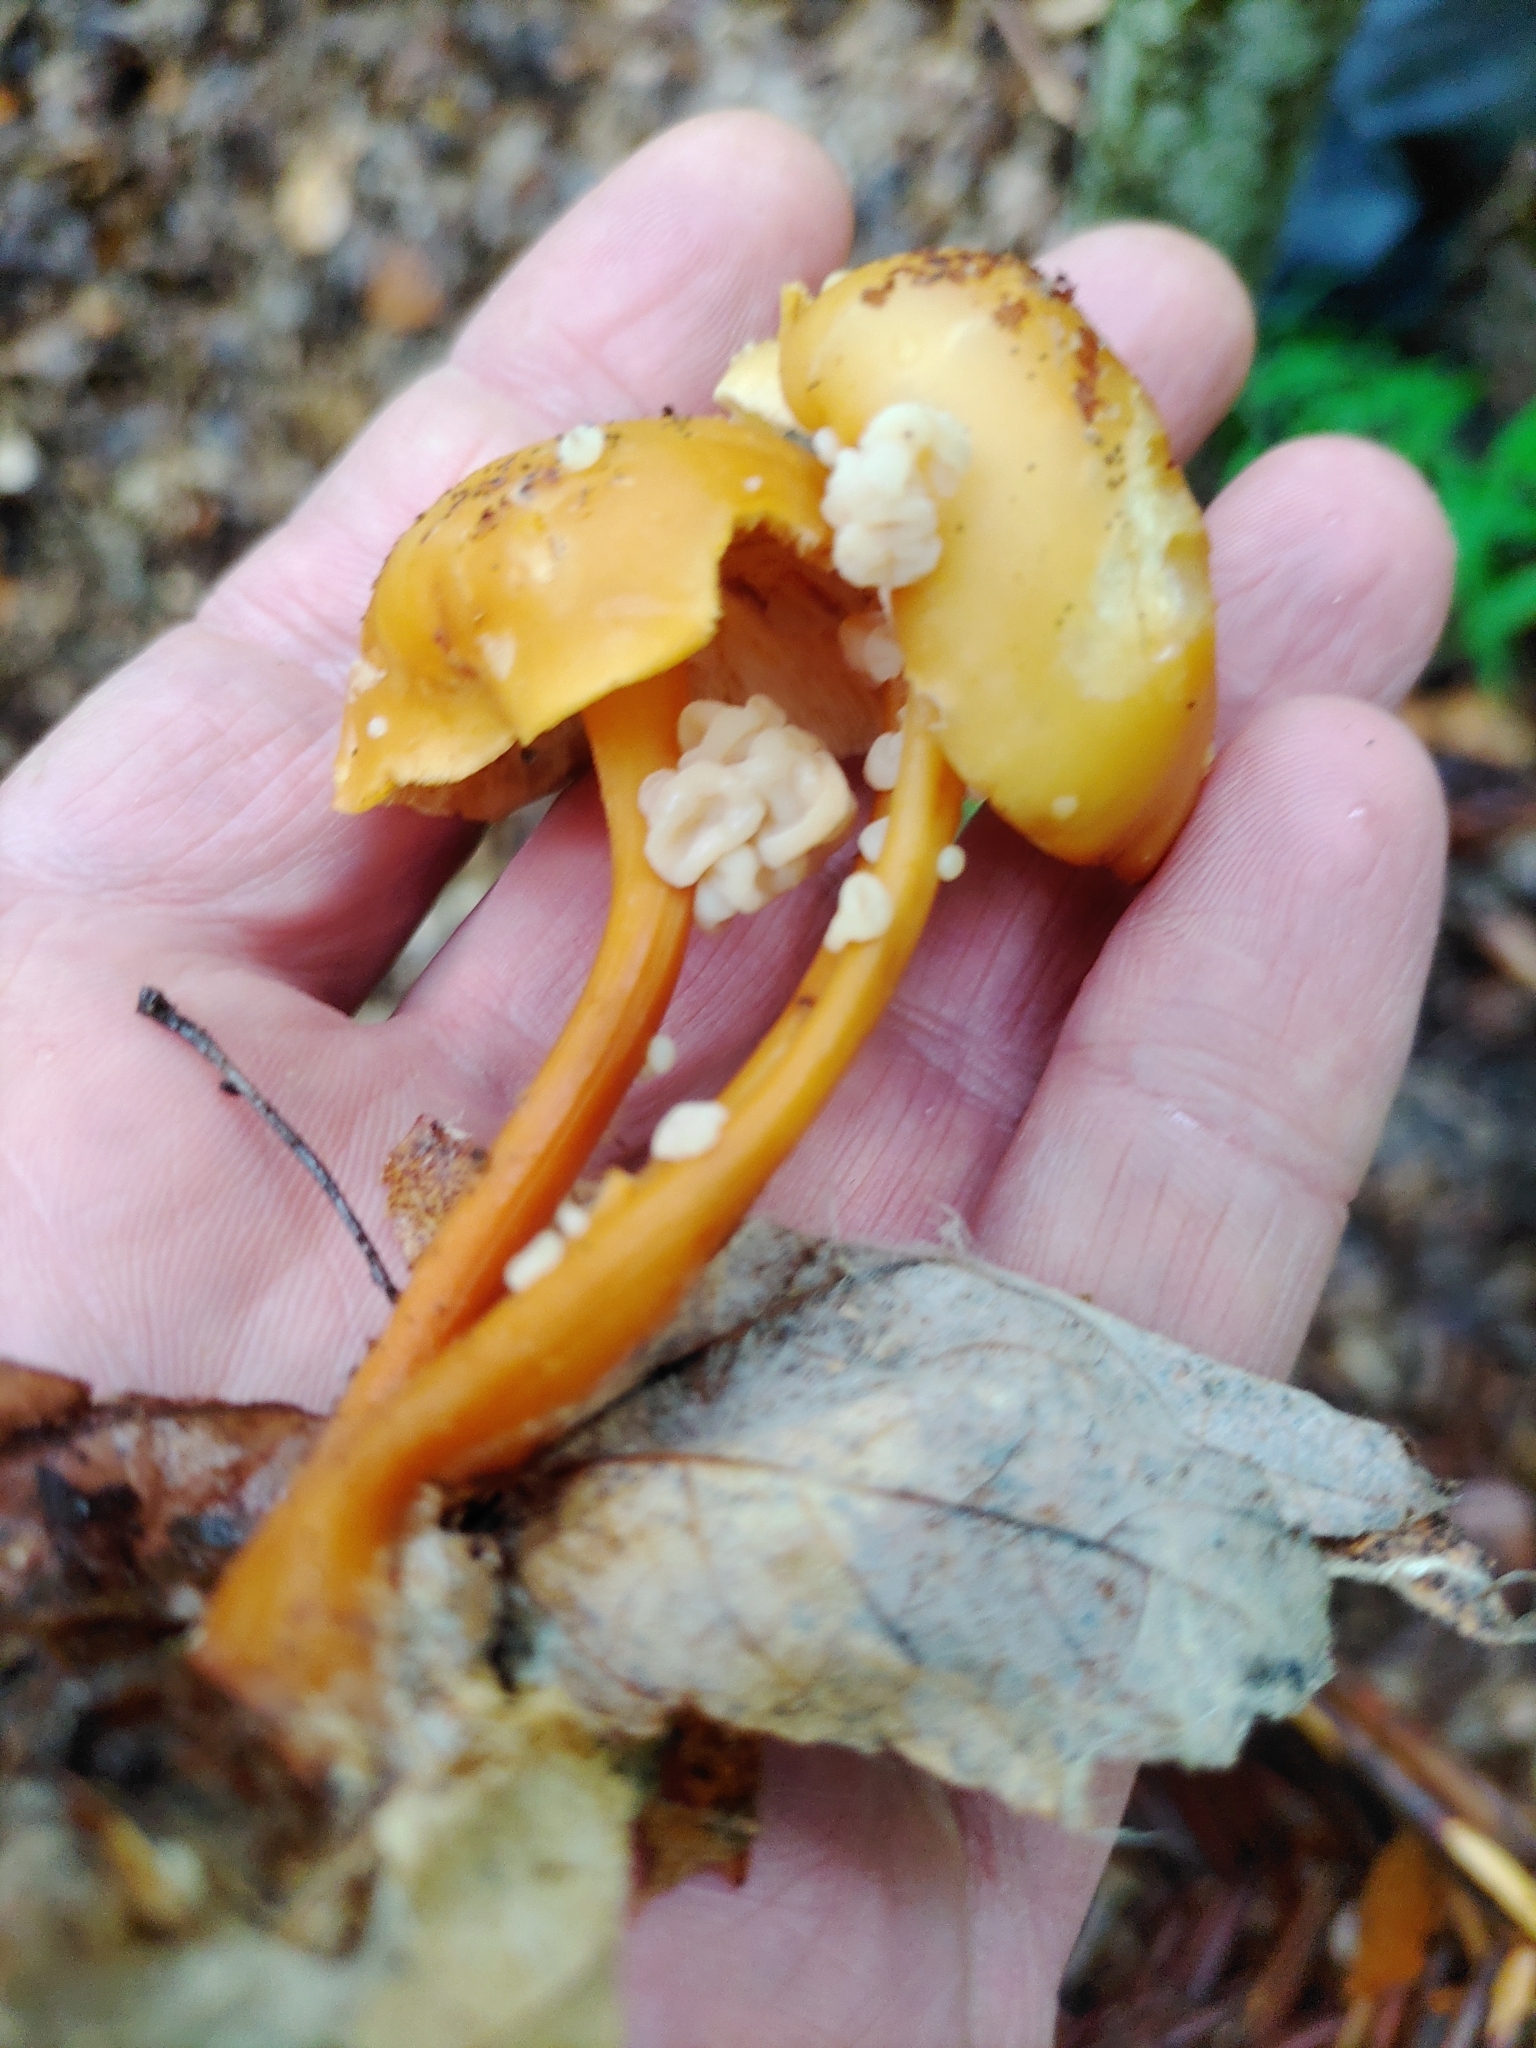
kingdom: Fungi
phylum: Basidiomycota
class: Tremellomycetes
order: Filobasidiales
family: Filobasidiaceae
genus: Syzygospora
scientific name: Syzygospora mycetophila
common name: Collybia clouds
